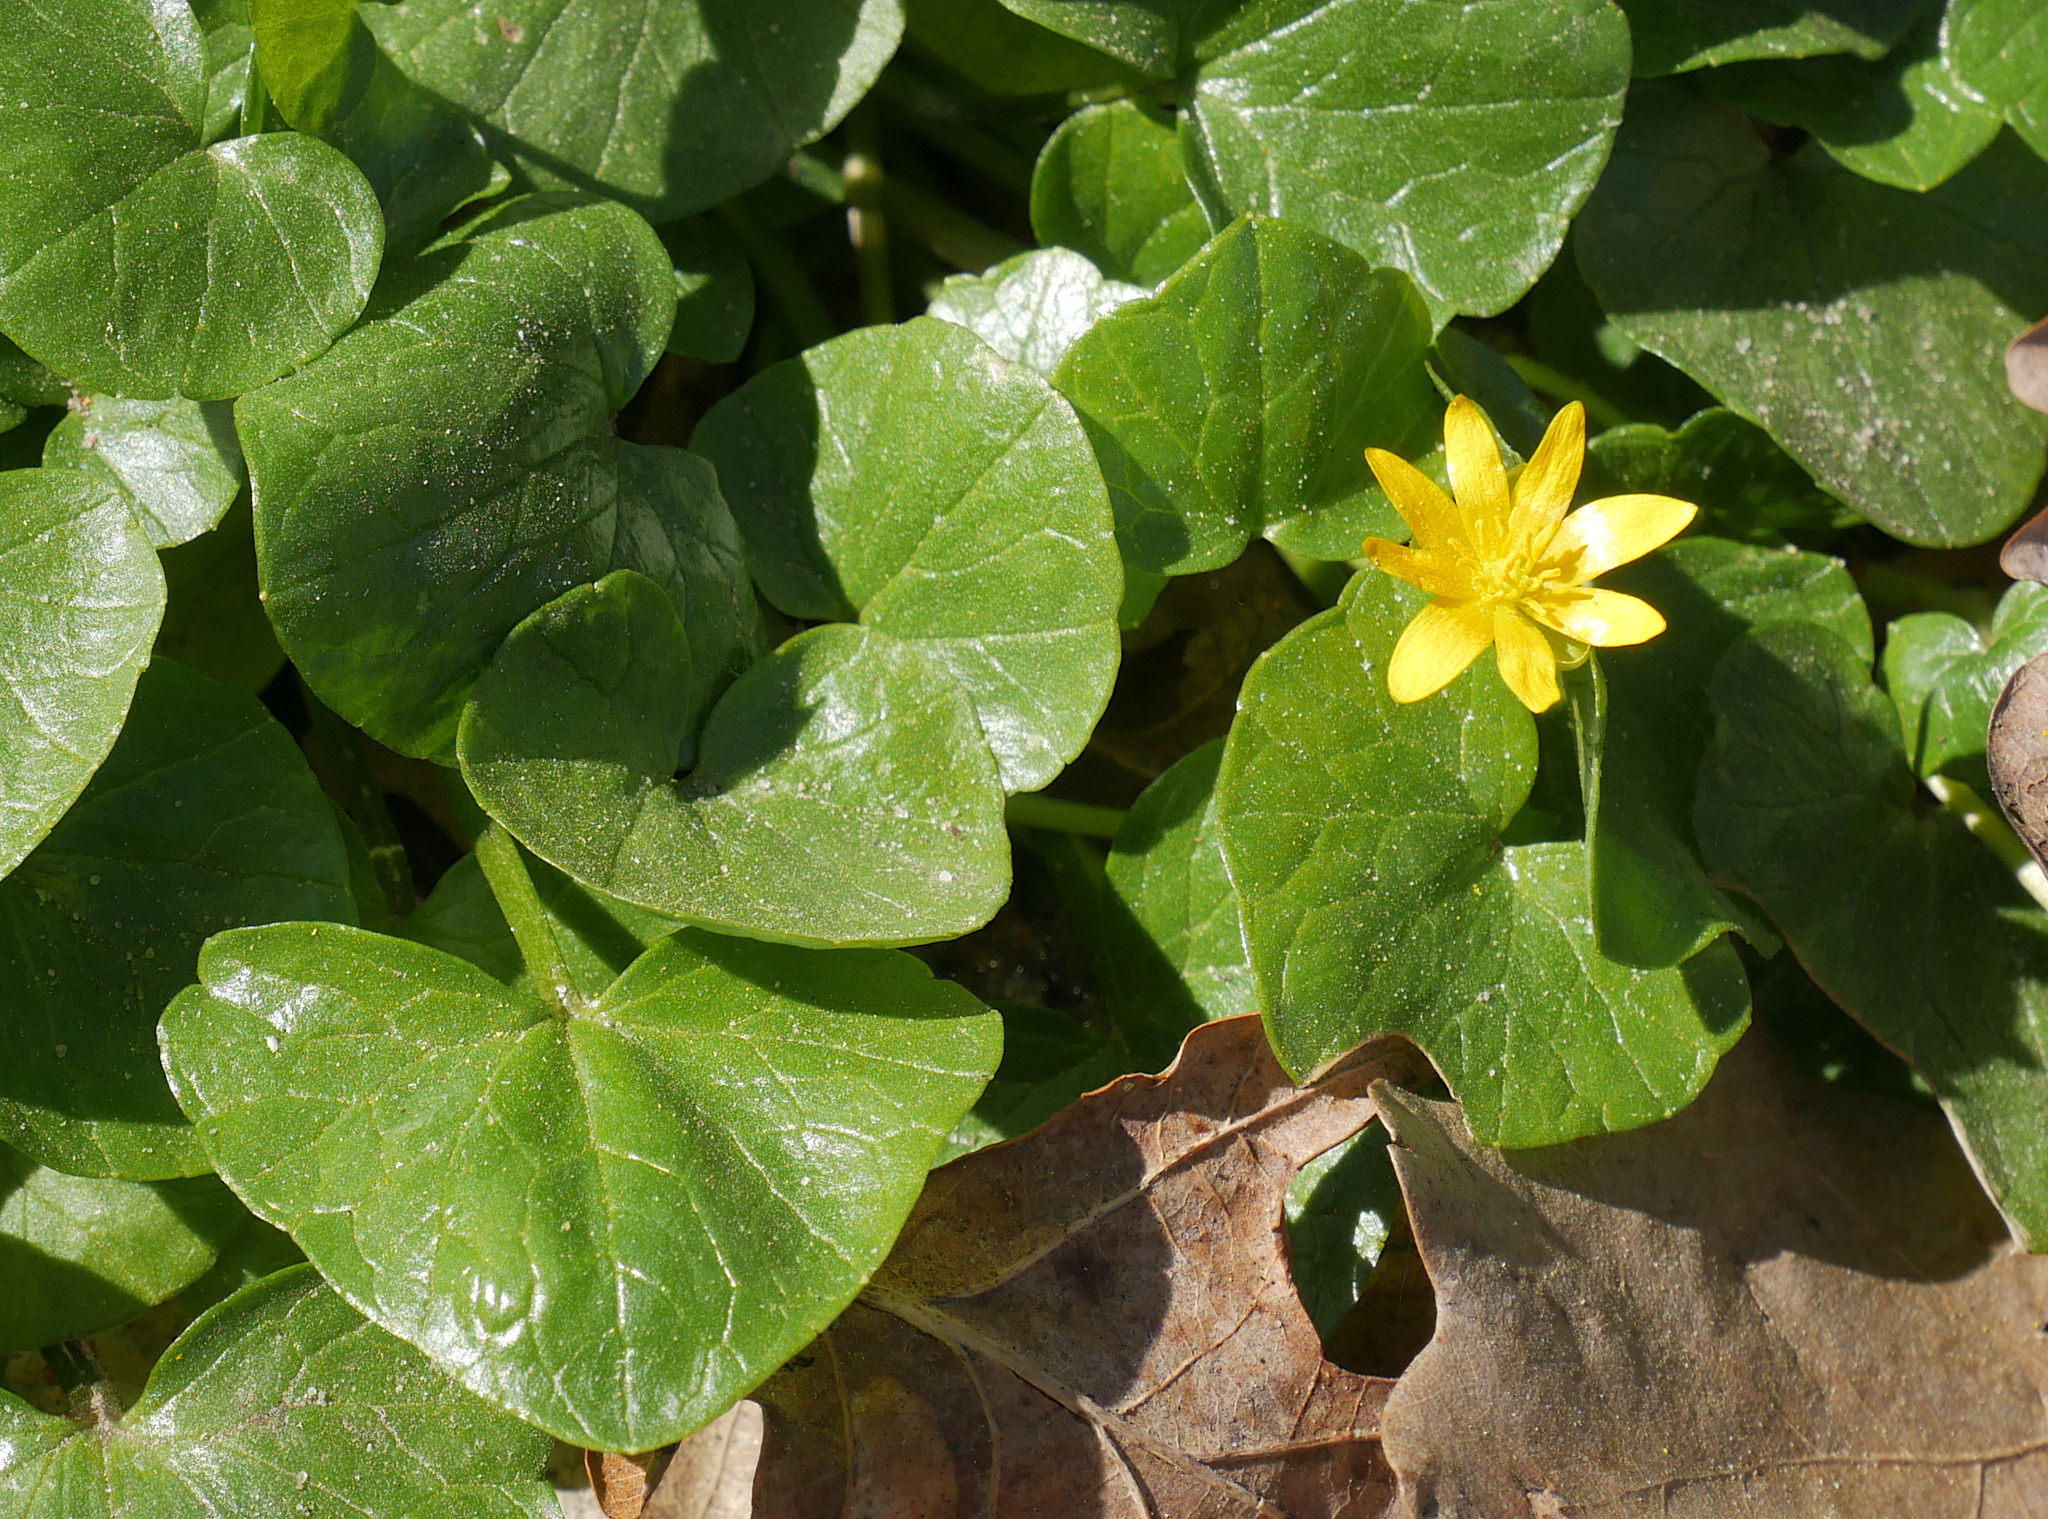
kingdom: Plantae
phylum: Tracheophyta
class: Magnoliopsida
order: Ranunculales
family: Ranunculaceae
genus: Ficaria
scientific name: Ficaria verna
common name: Lesser celandine
